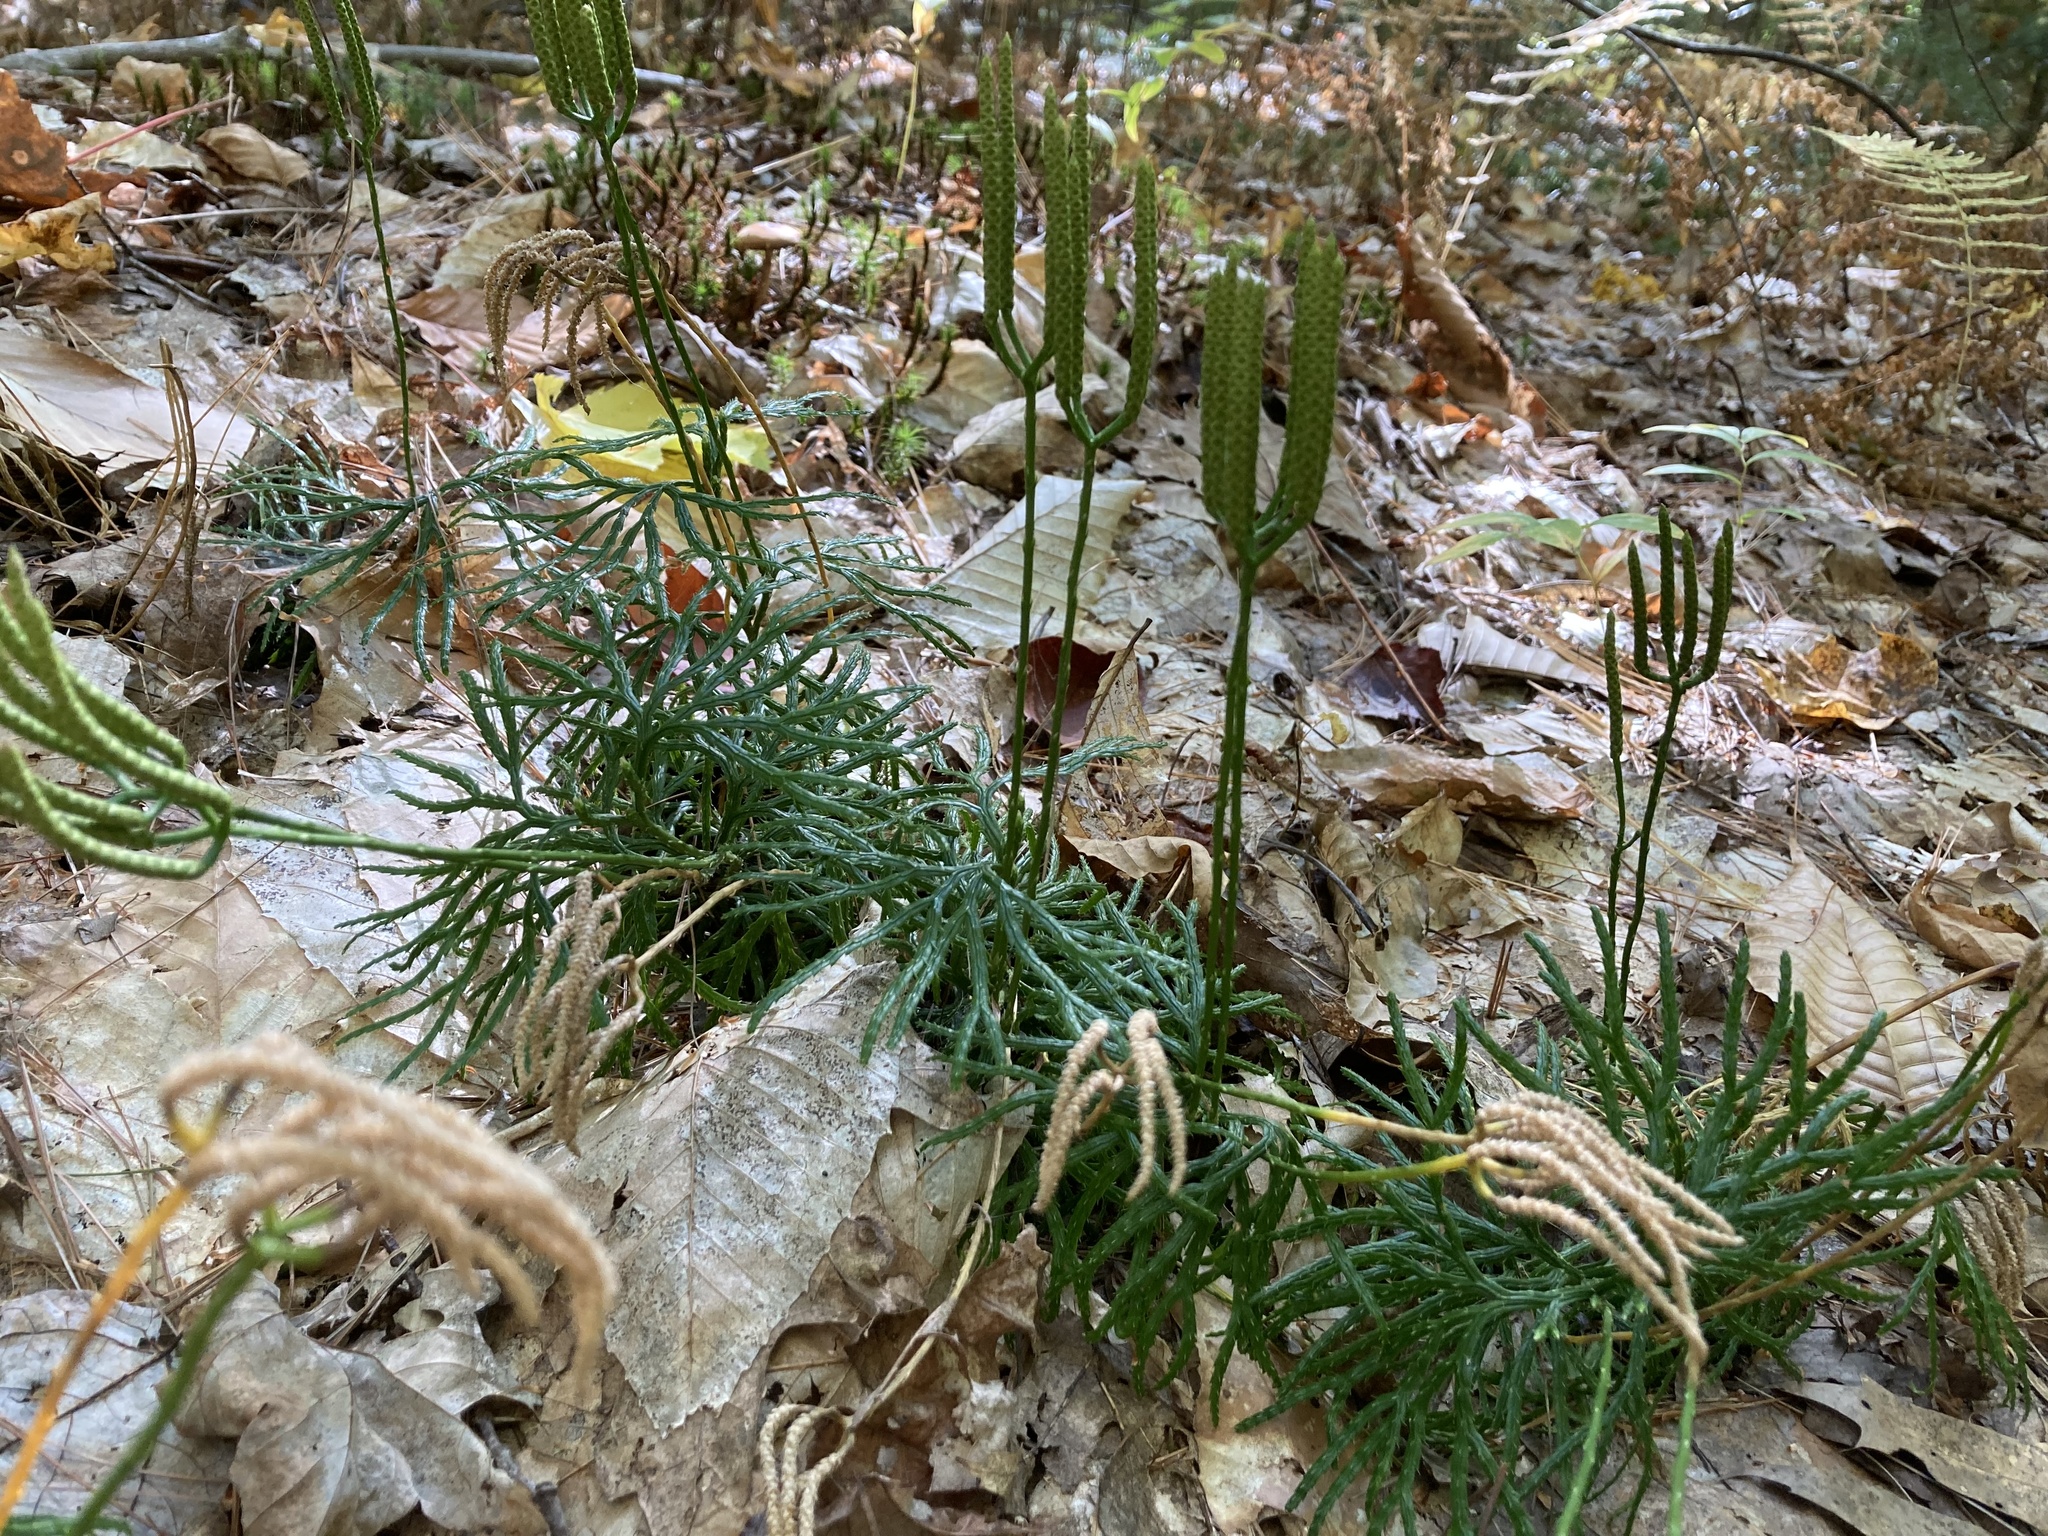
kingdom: Plantae
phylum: Tracheophyta
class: Lycopodiopsida
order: Lycopodiales
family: Lycopodiaceae
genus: Diphasiastrum
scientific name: Diphasiastrum digitatum
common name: Southern running-pine
